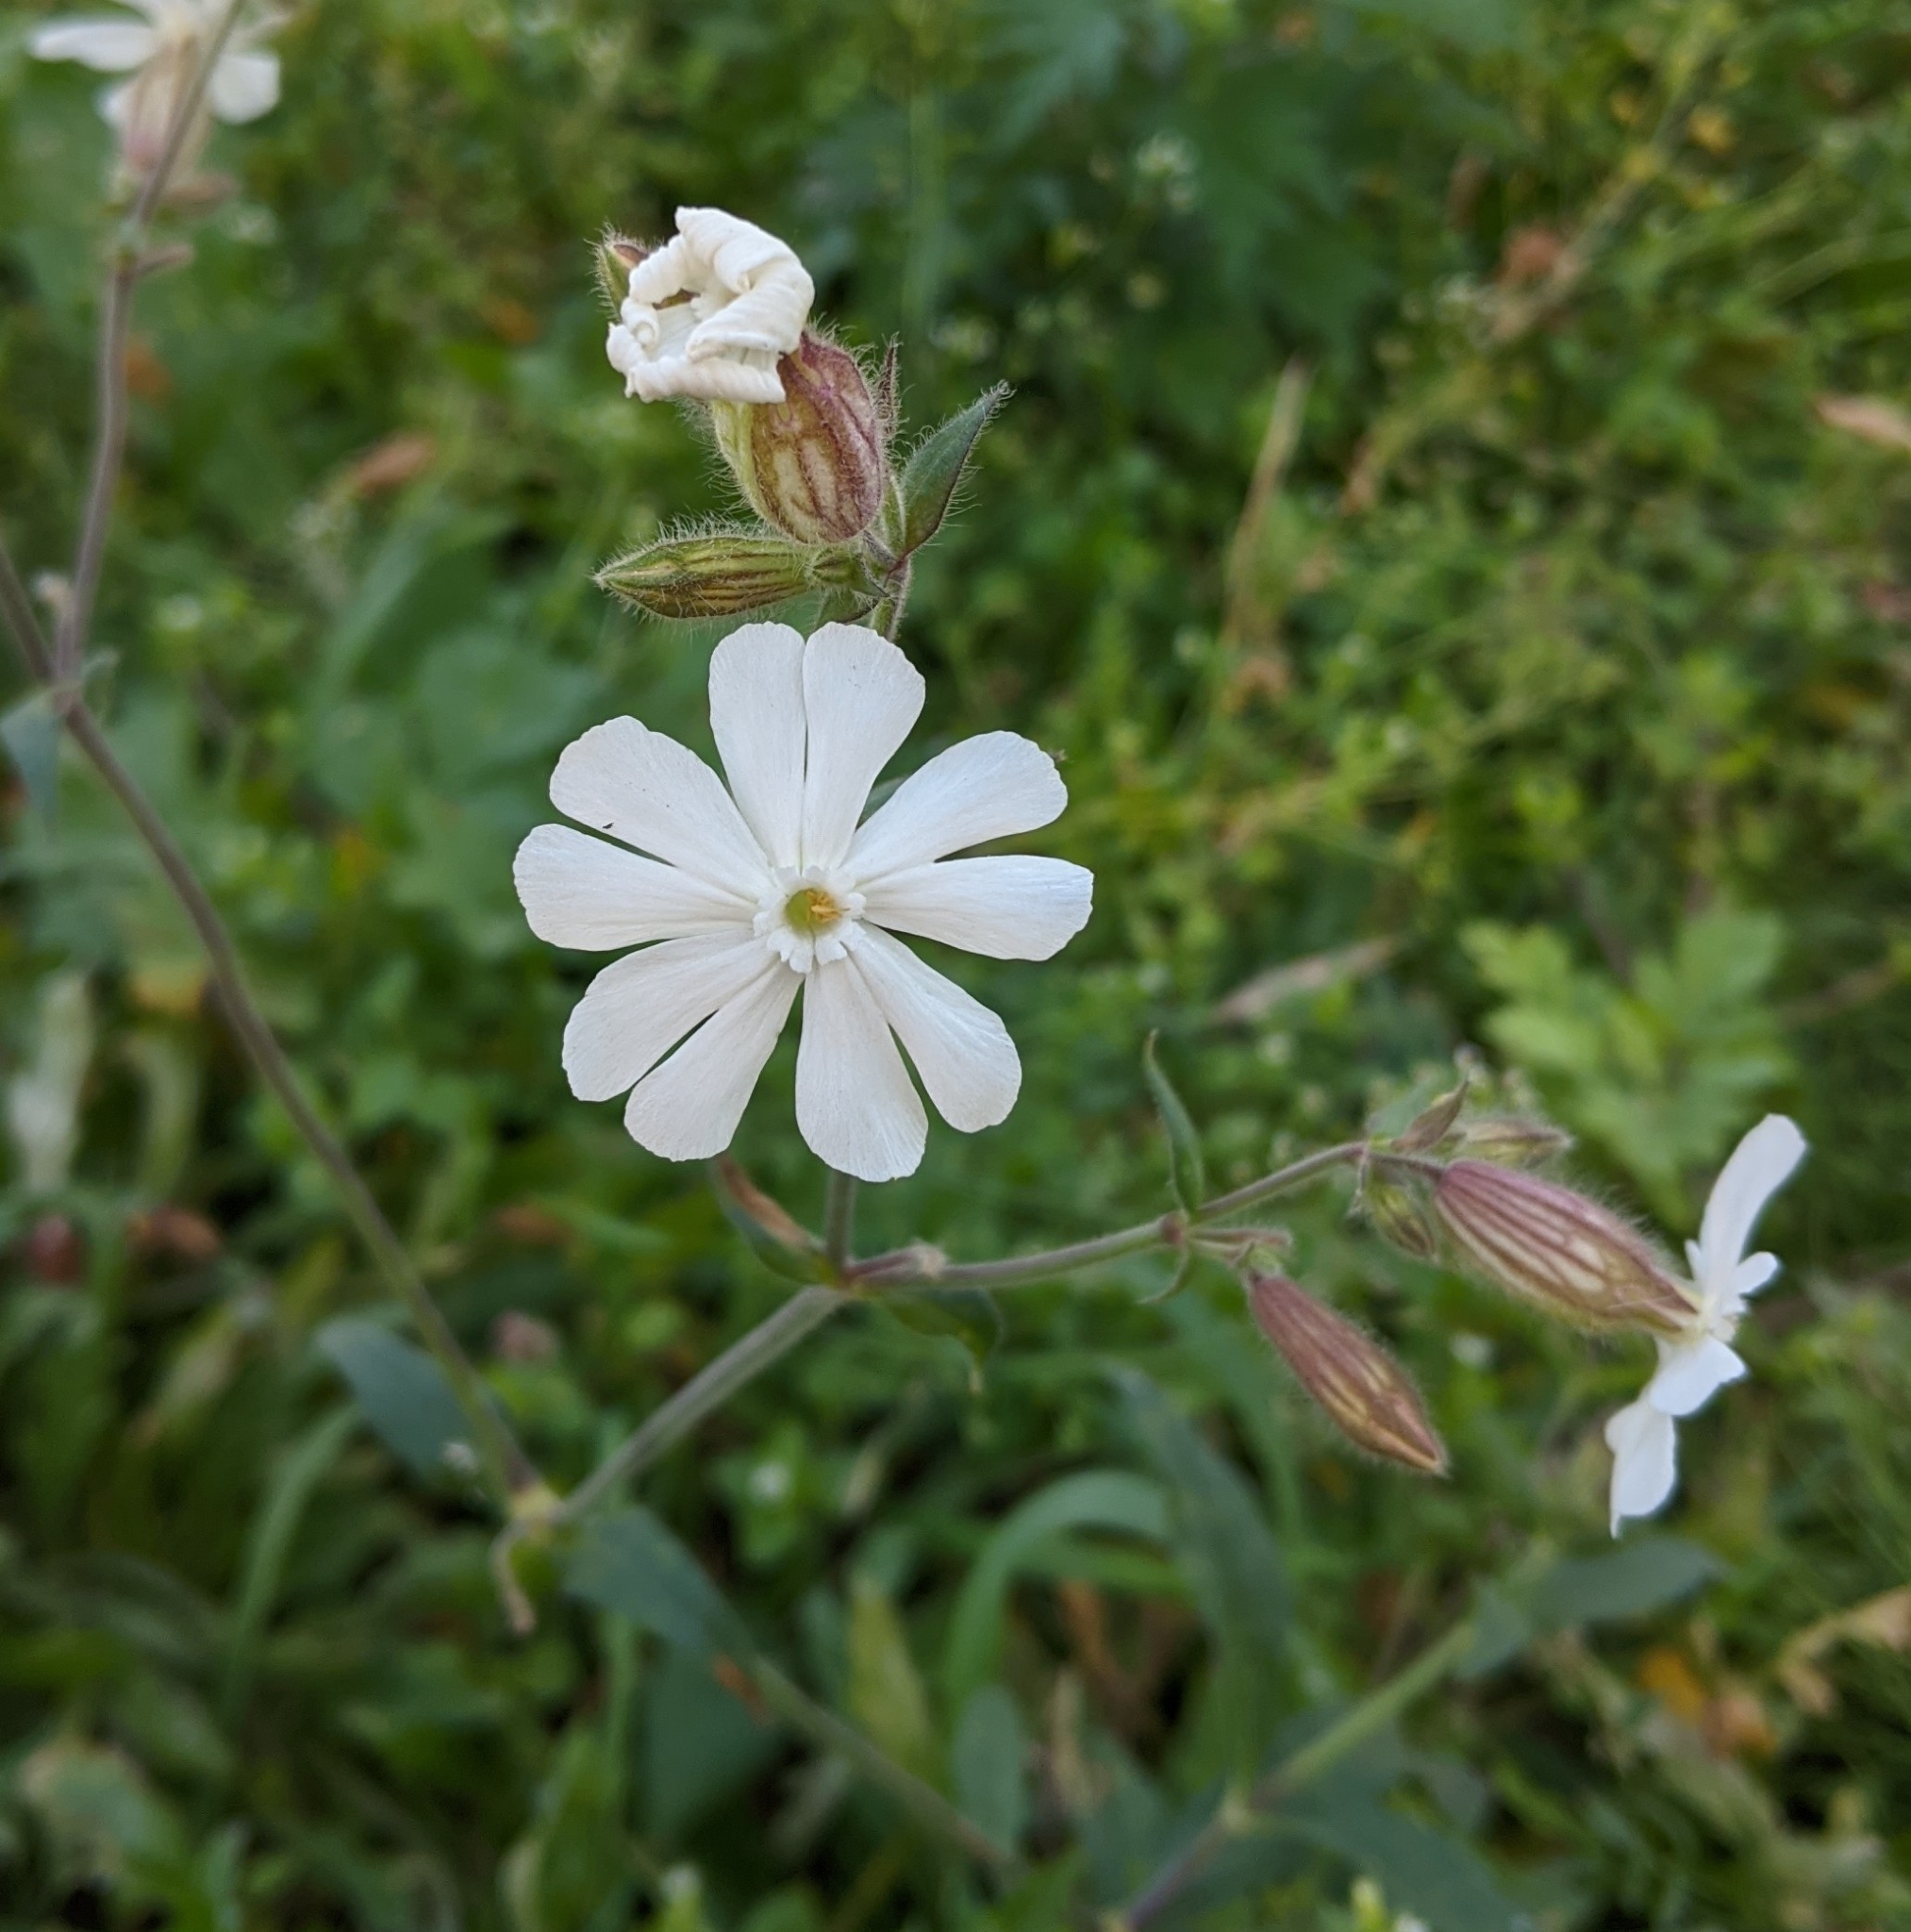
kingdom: Plantae
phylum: Tracheophyta
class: Magnoliopsida
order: Caryophyllales
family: Caryophyllaceae
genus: Silene
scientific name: Silene latifolia
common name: White campion
